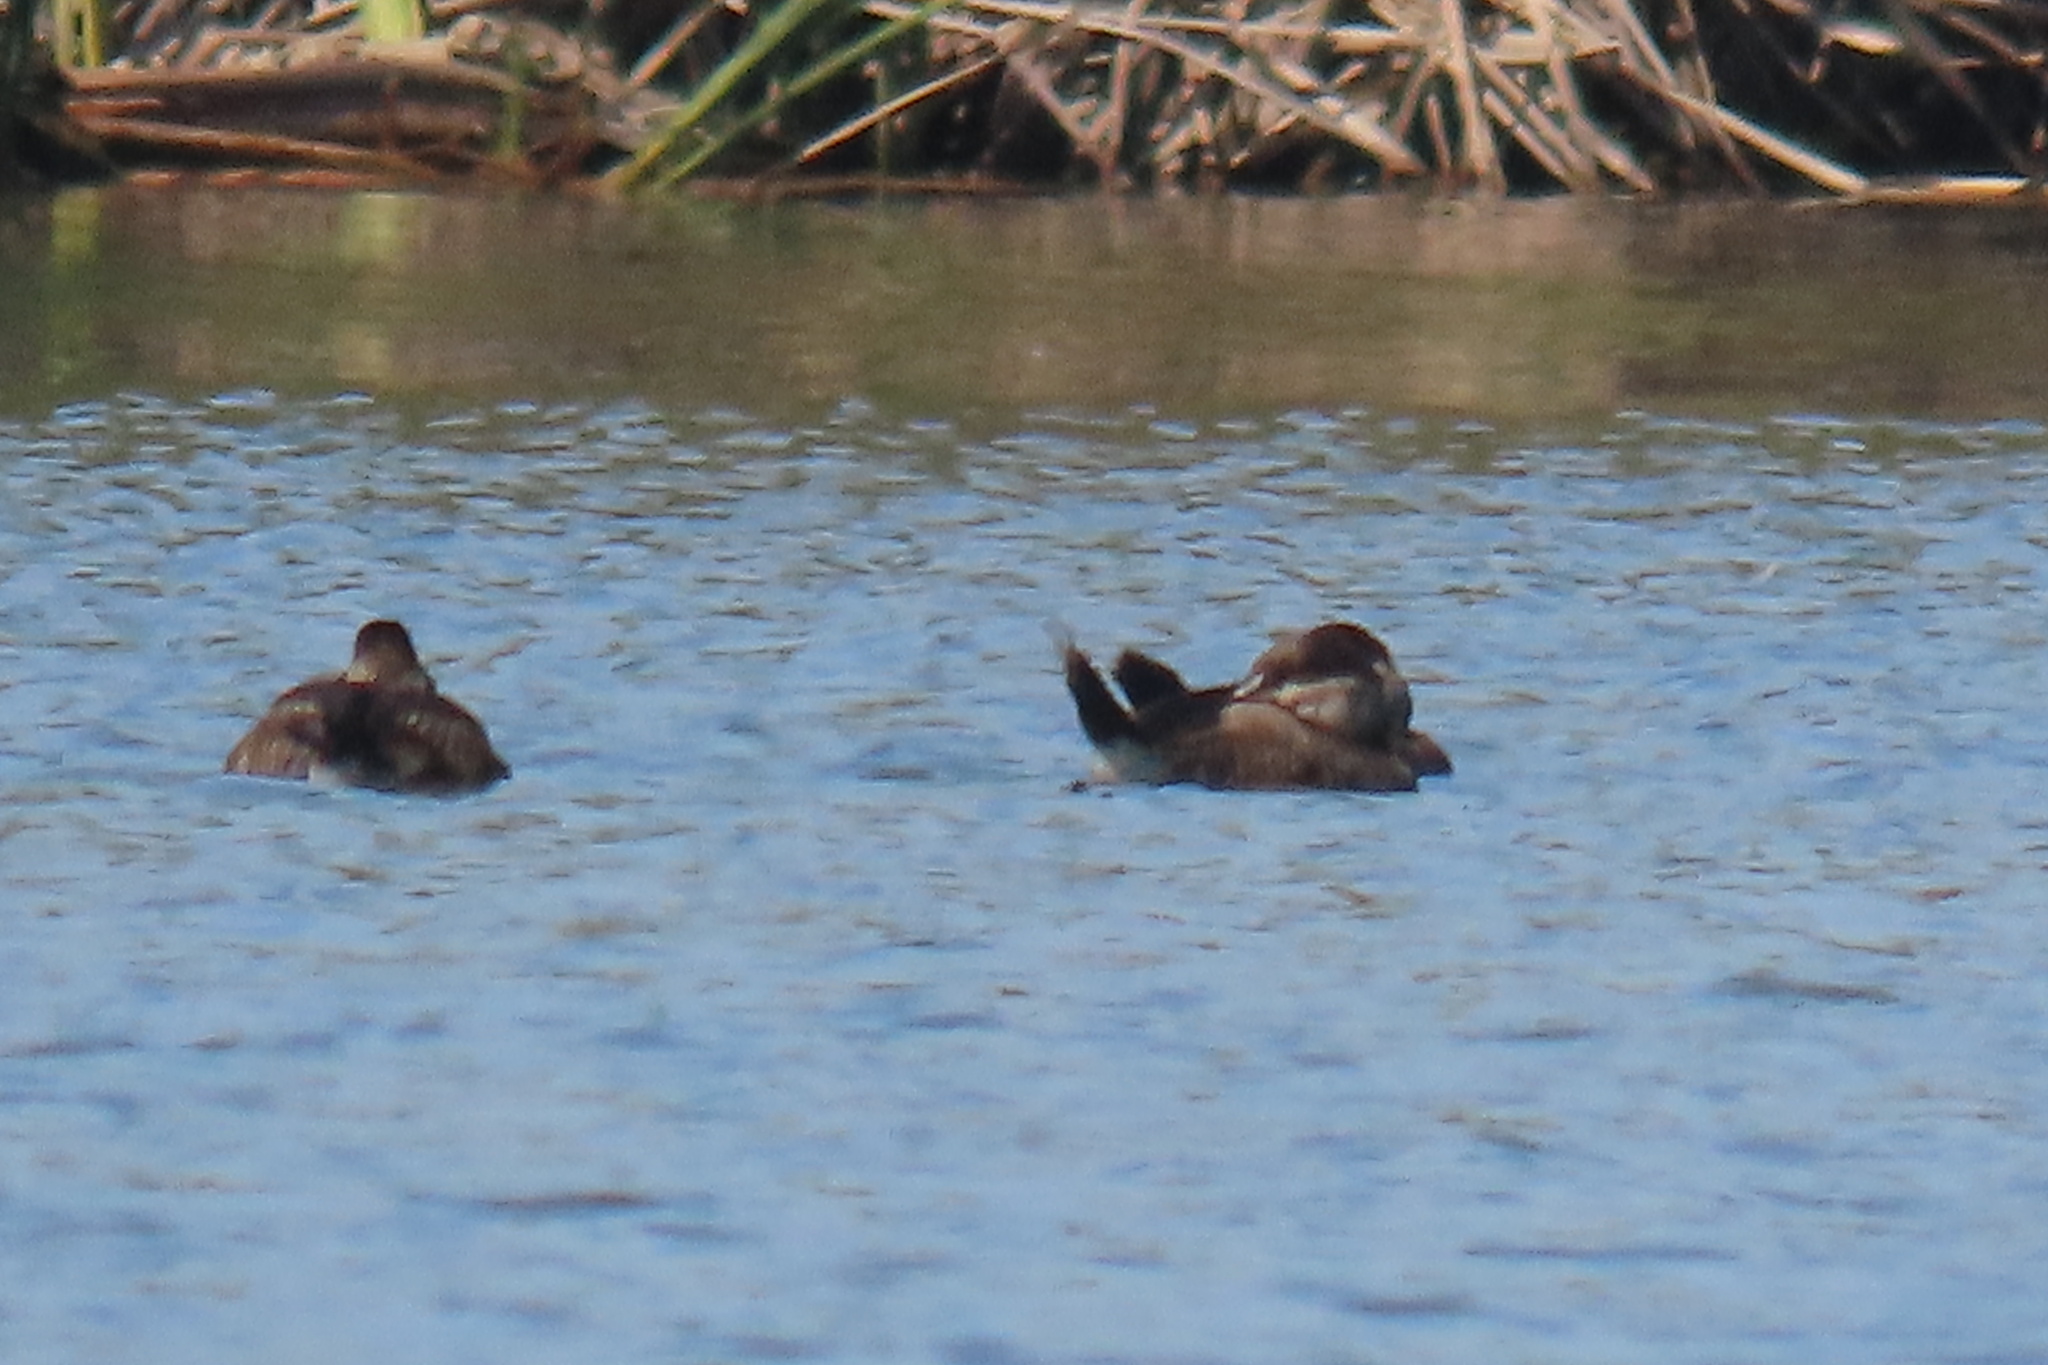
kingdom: Animalia
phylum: Chordata
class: Aves
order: Anseriformes
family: Anatidae
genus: Oxyura
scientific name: Oxyura jamaicensis
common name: Ruddy duck
